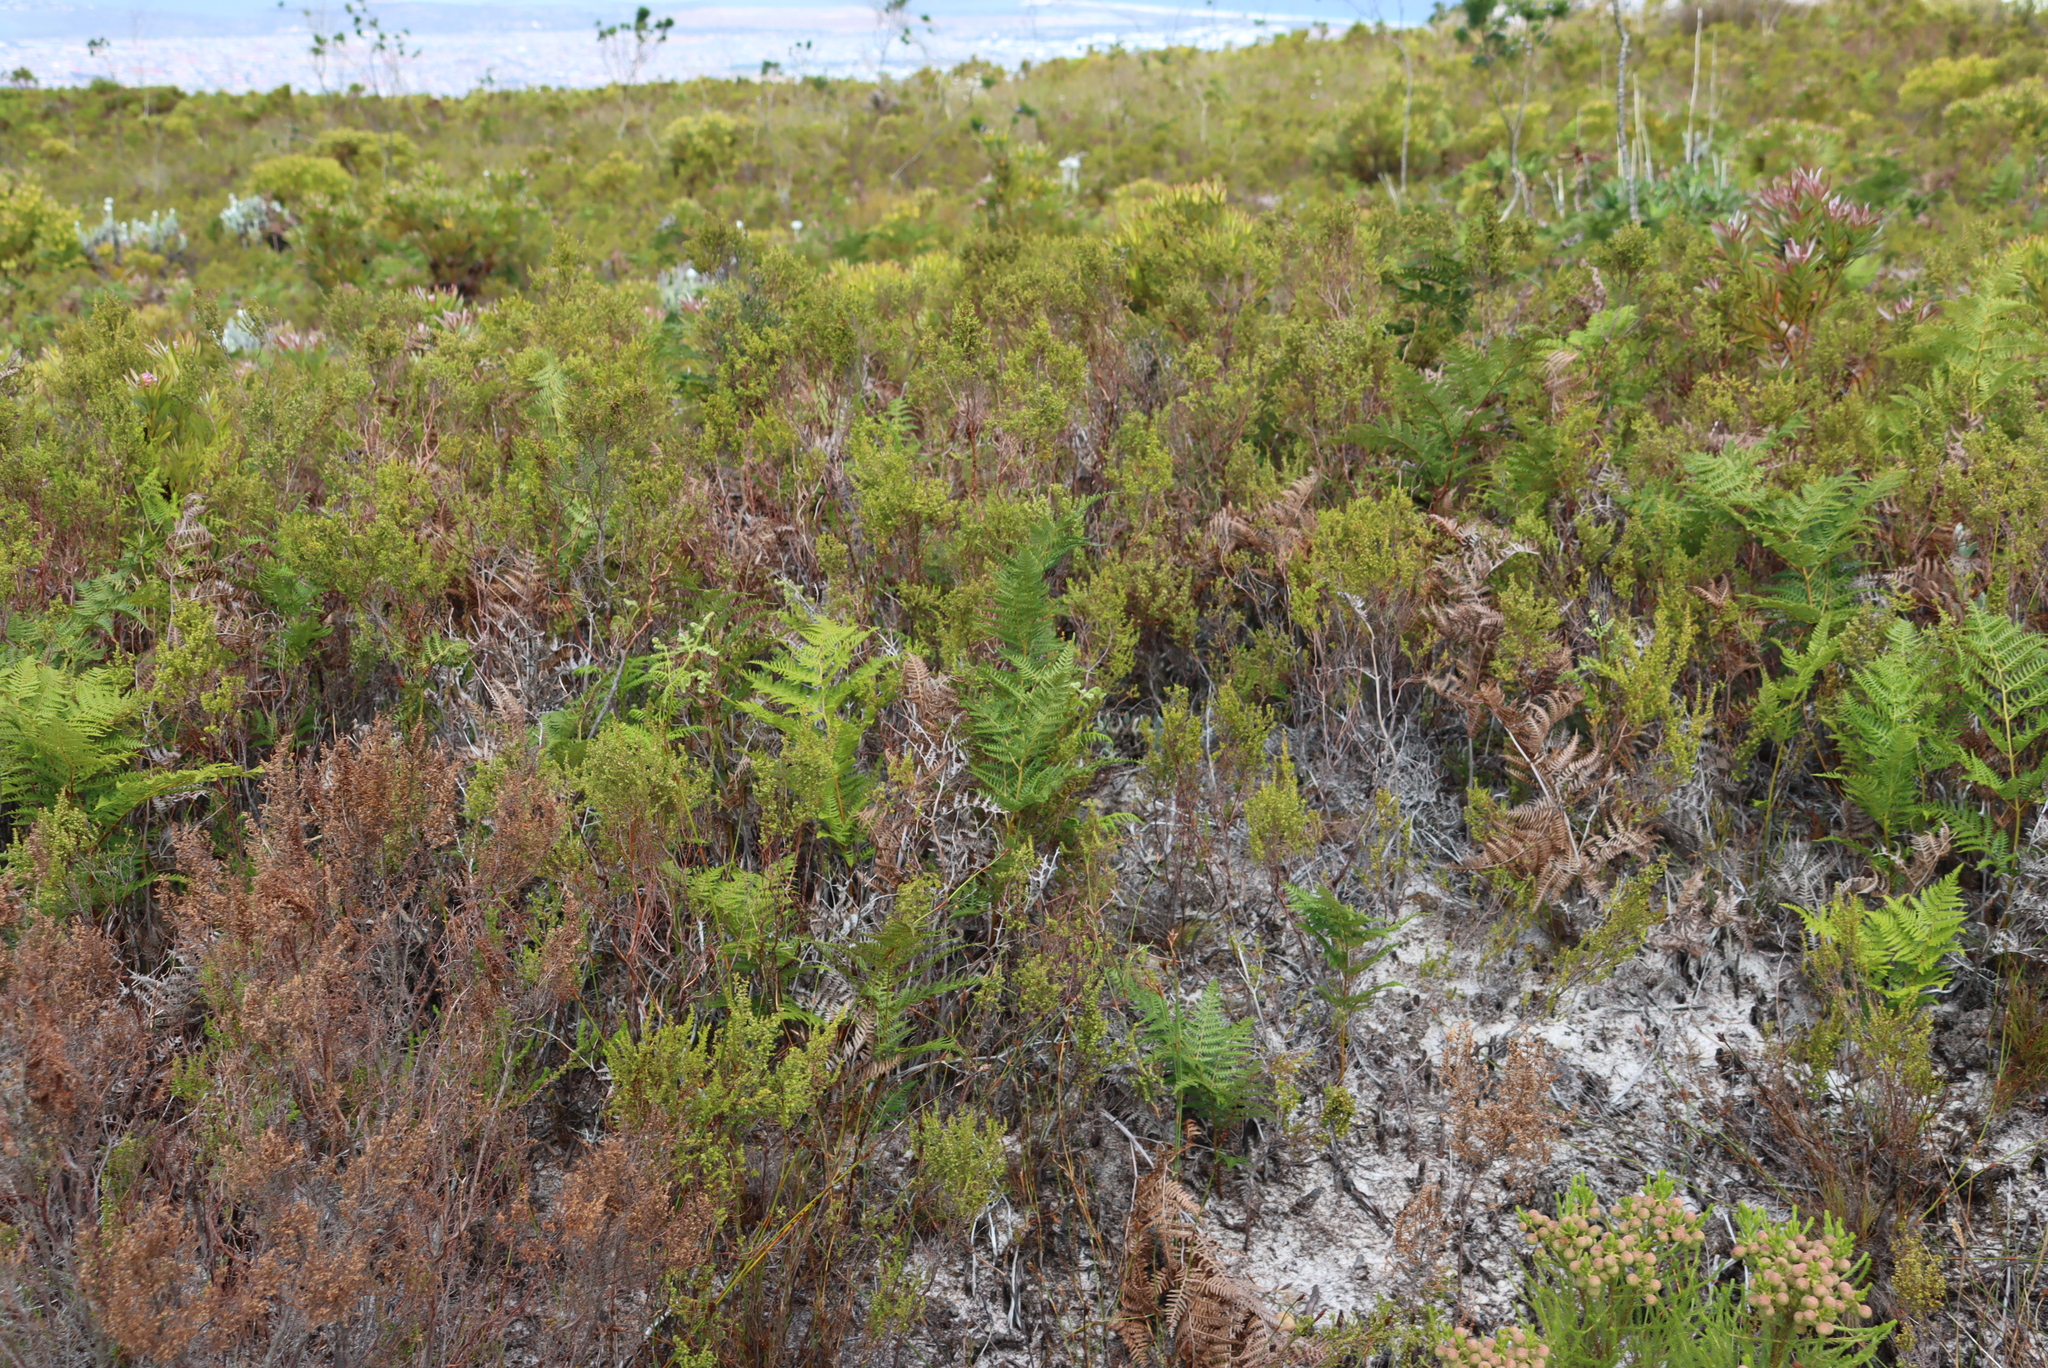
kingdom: Plantae
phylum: Tracheophyta
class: Polypodiopsida
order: Polypodiales
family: Dennstaedtiaceae
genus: Pteridium
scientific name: Pteridium aquilinum
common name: Bracken
